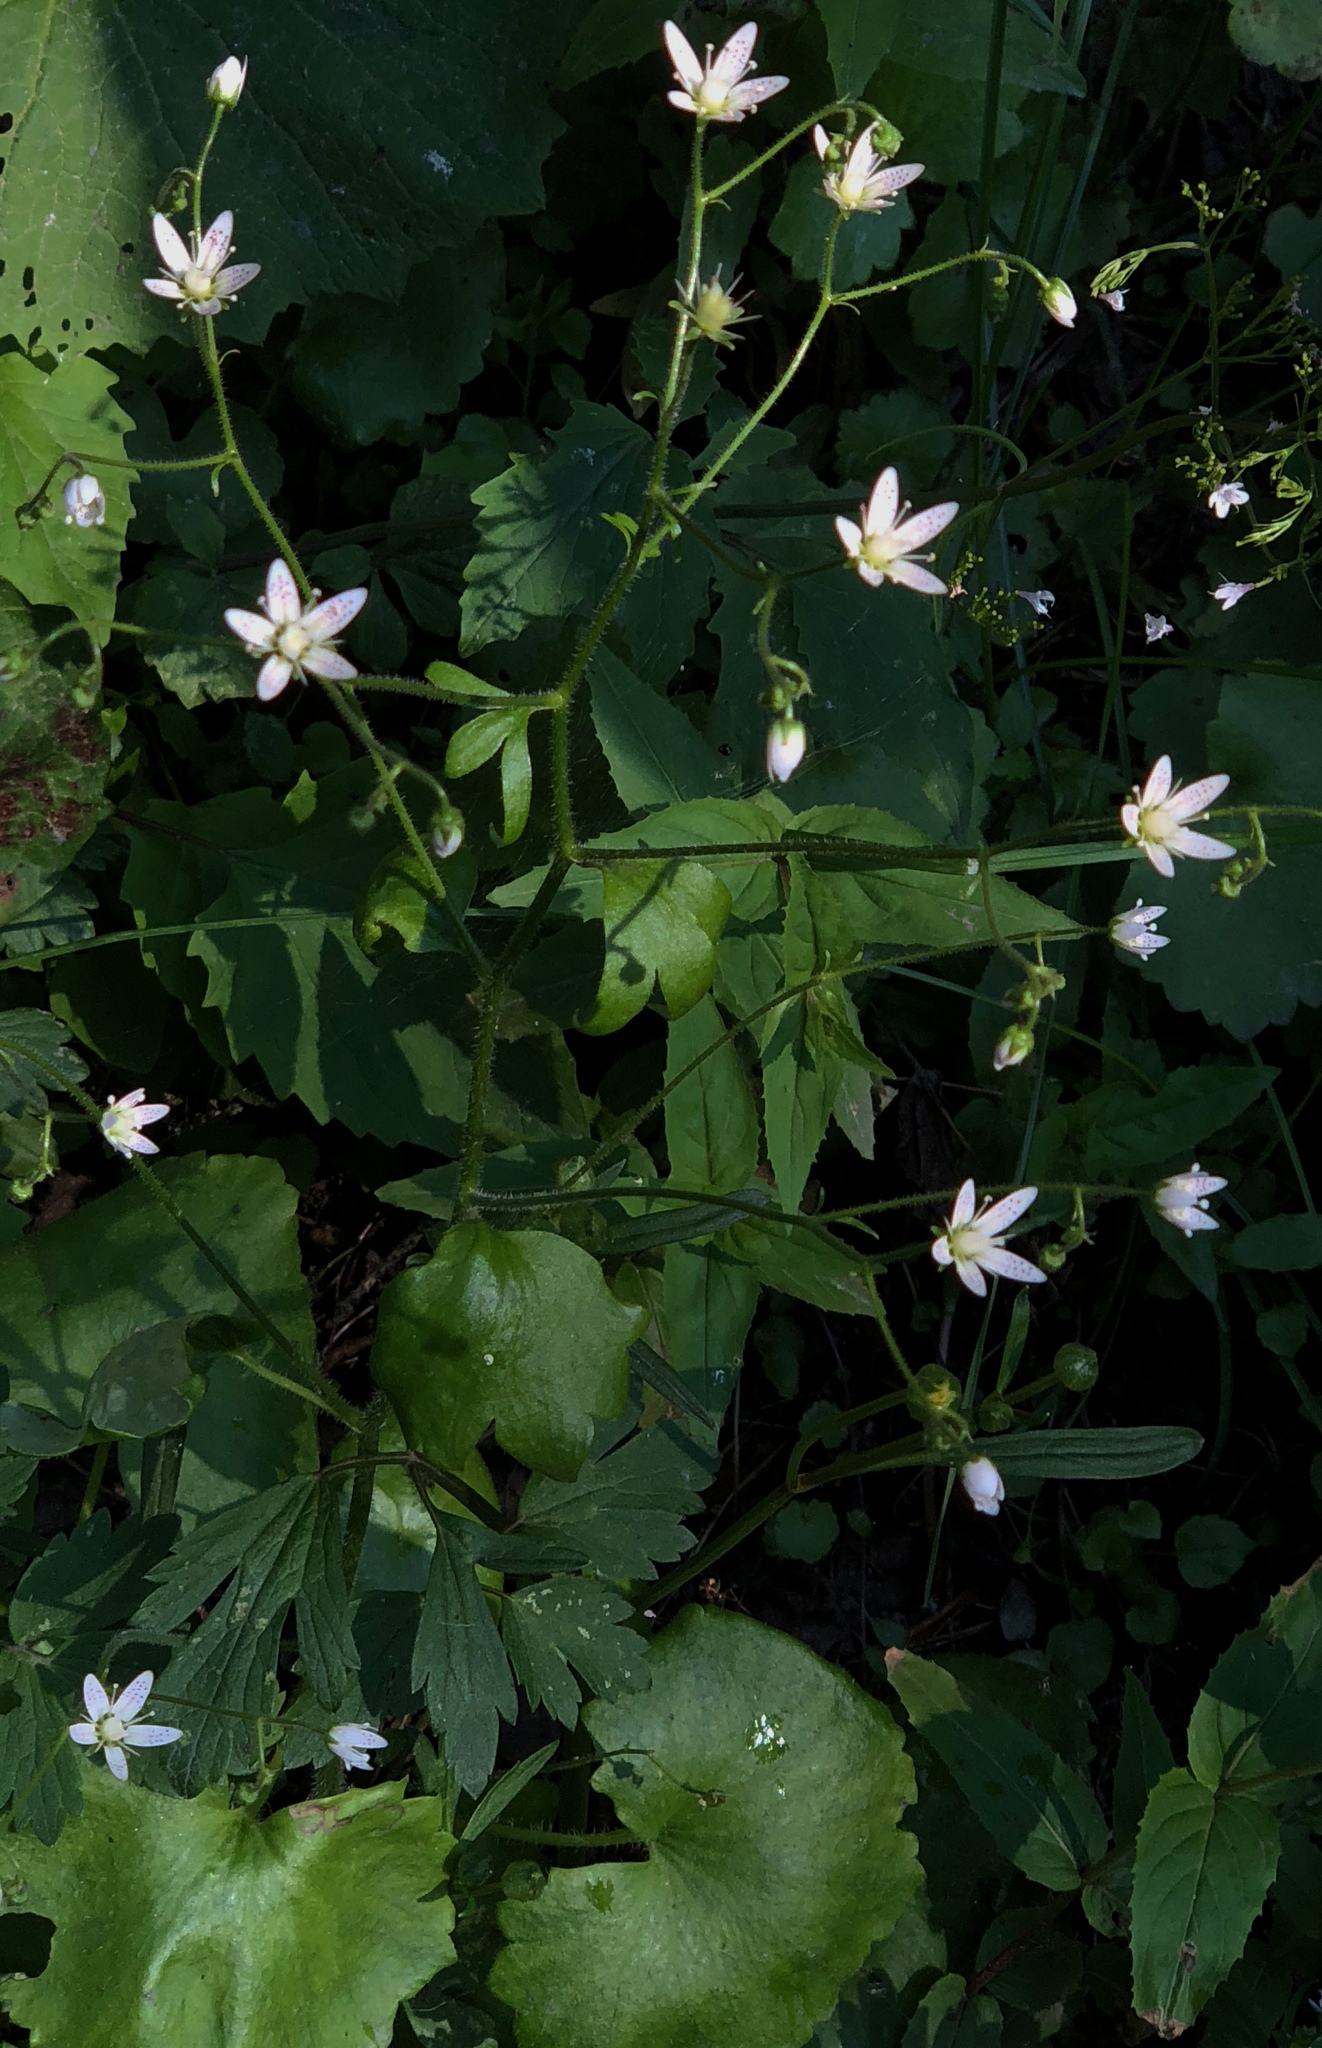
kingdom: Plantae
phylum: Tracheophyta
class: Magnoliopsida
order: Saxifragales
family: Saxifragaceae
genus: Saxifraga
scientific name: Saxifraga rotundifolia
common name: Round-leaved saxifrage
